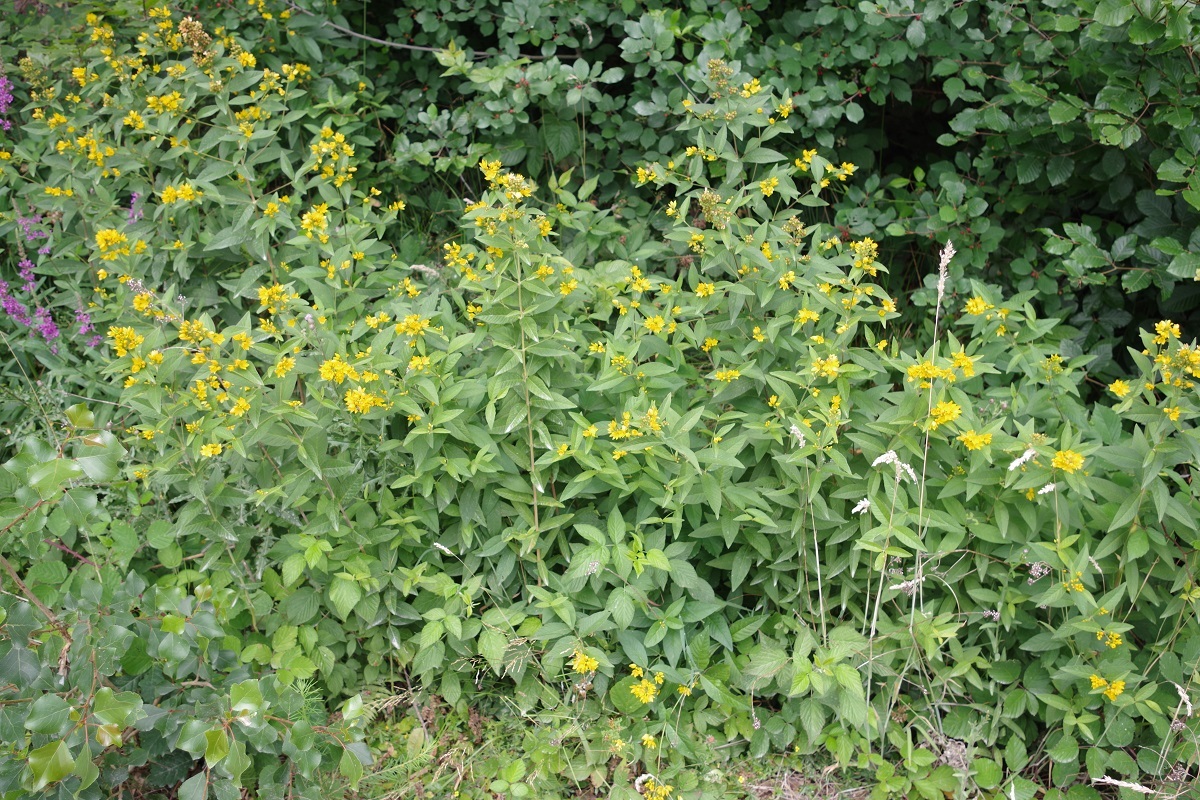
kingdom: Plantae
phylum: Tracheophyta
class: Magnoliopsida
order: Ericales
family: Primulaceae
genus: Lysimachia
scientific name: Lysimachia vulgaris
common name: Yellow loosestrife
